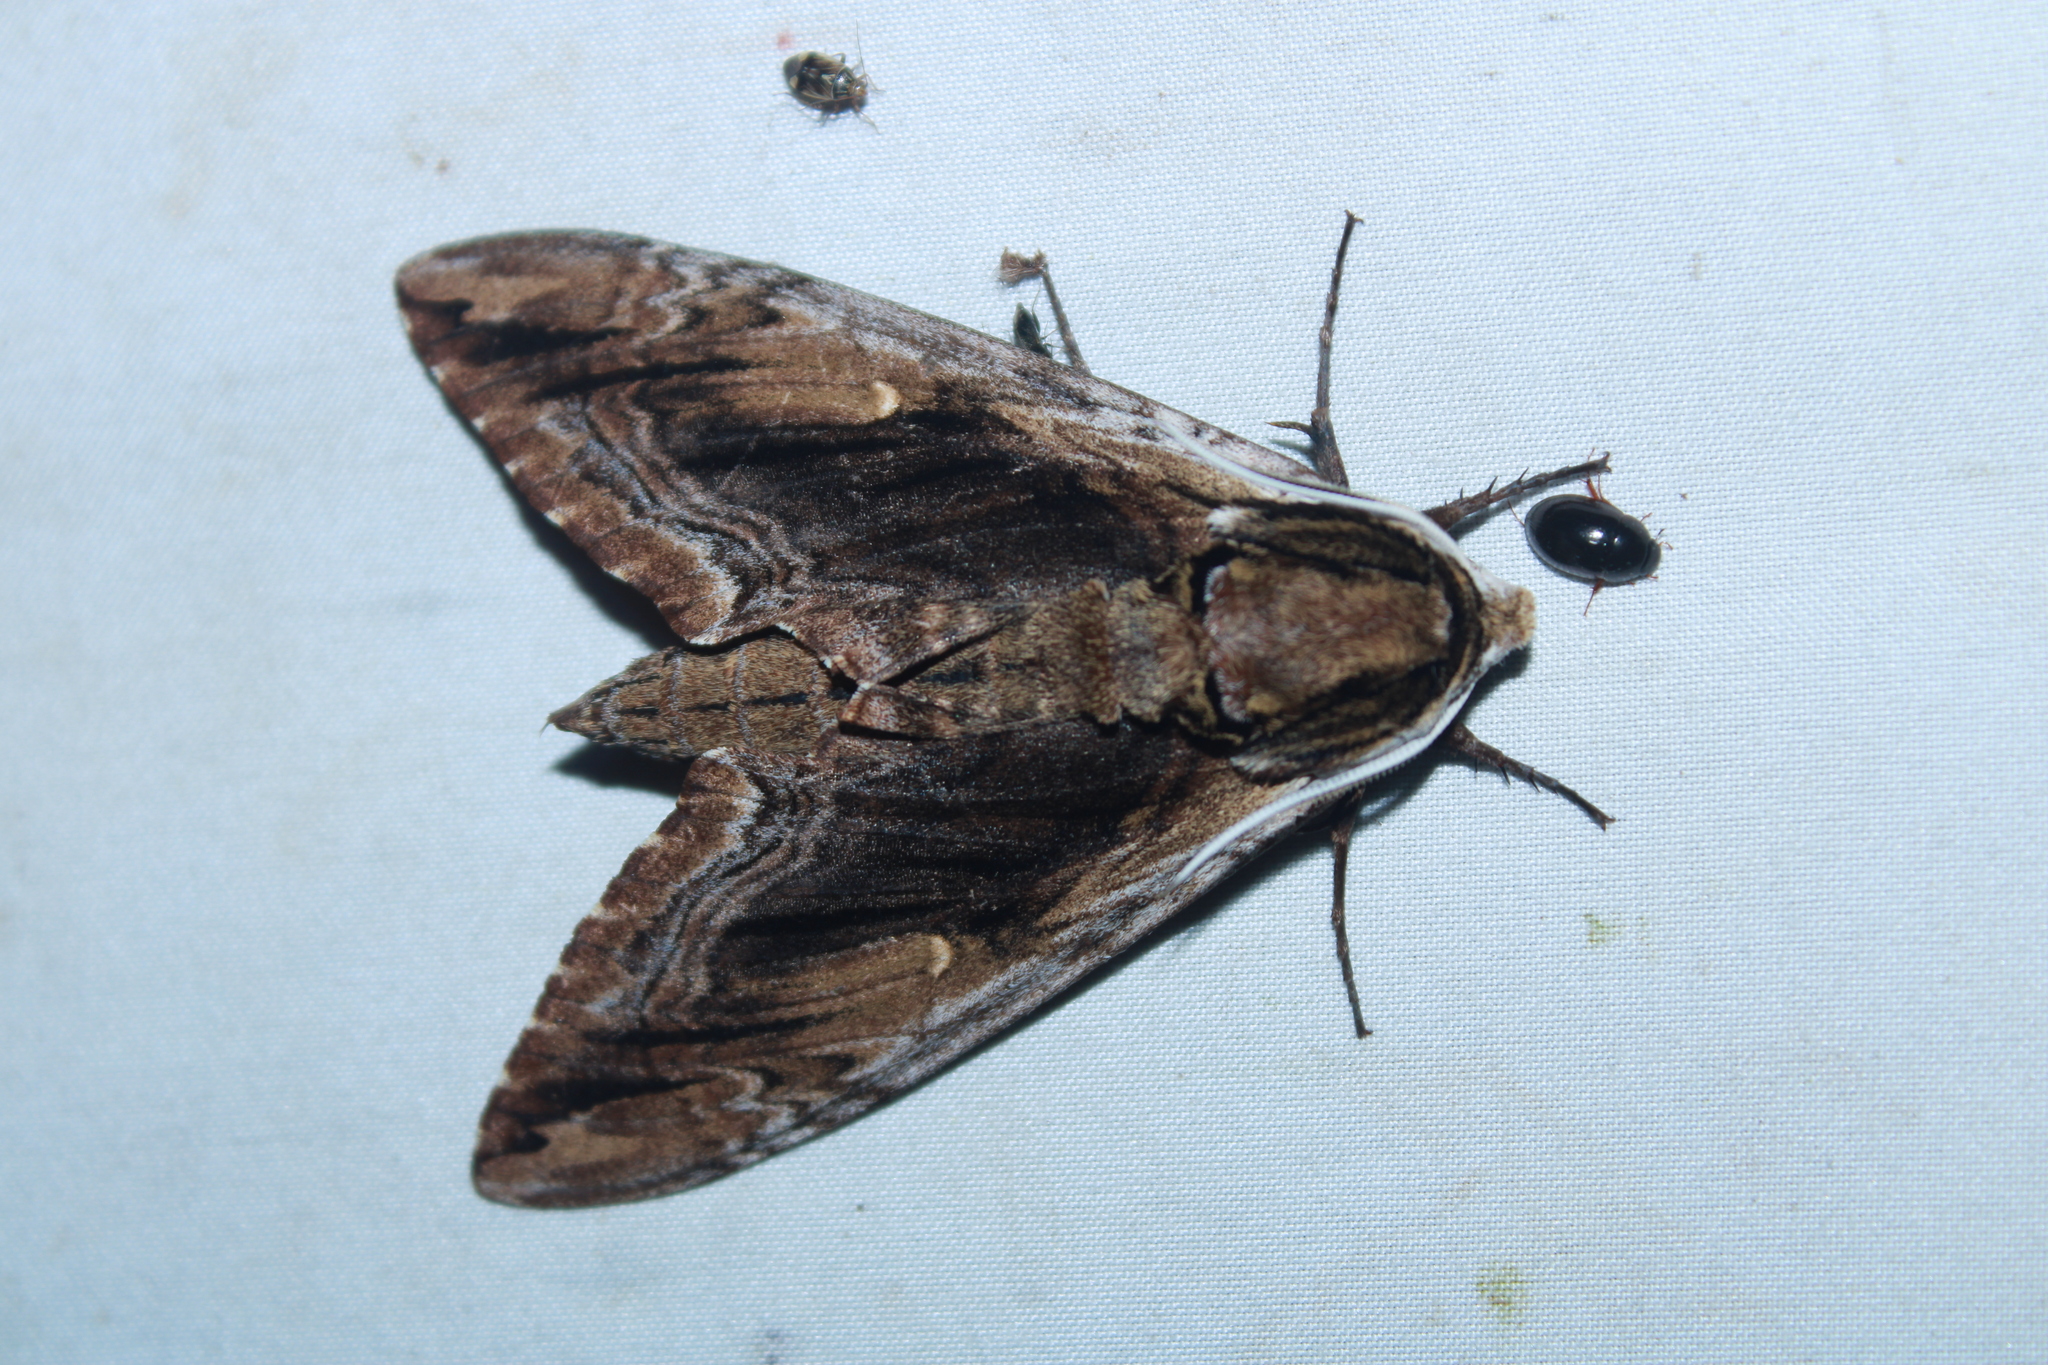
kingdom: Animalia
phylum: Arthropoda
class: Insecta
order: Lepidoptera
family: Sphingidae
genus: Ceratomia
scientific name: Ceratomia amyntor
